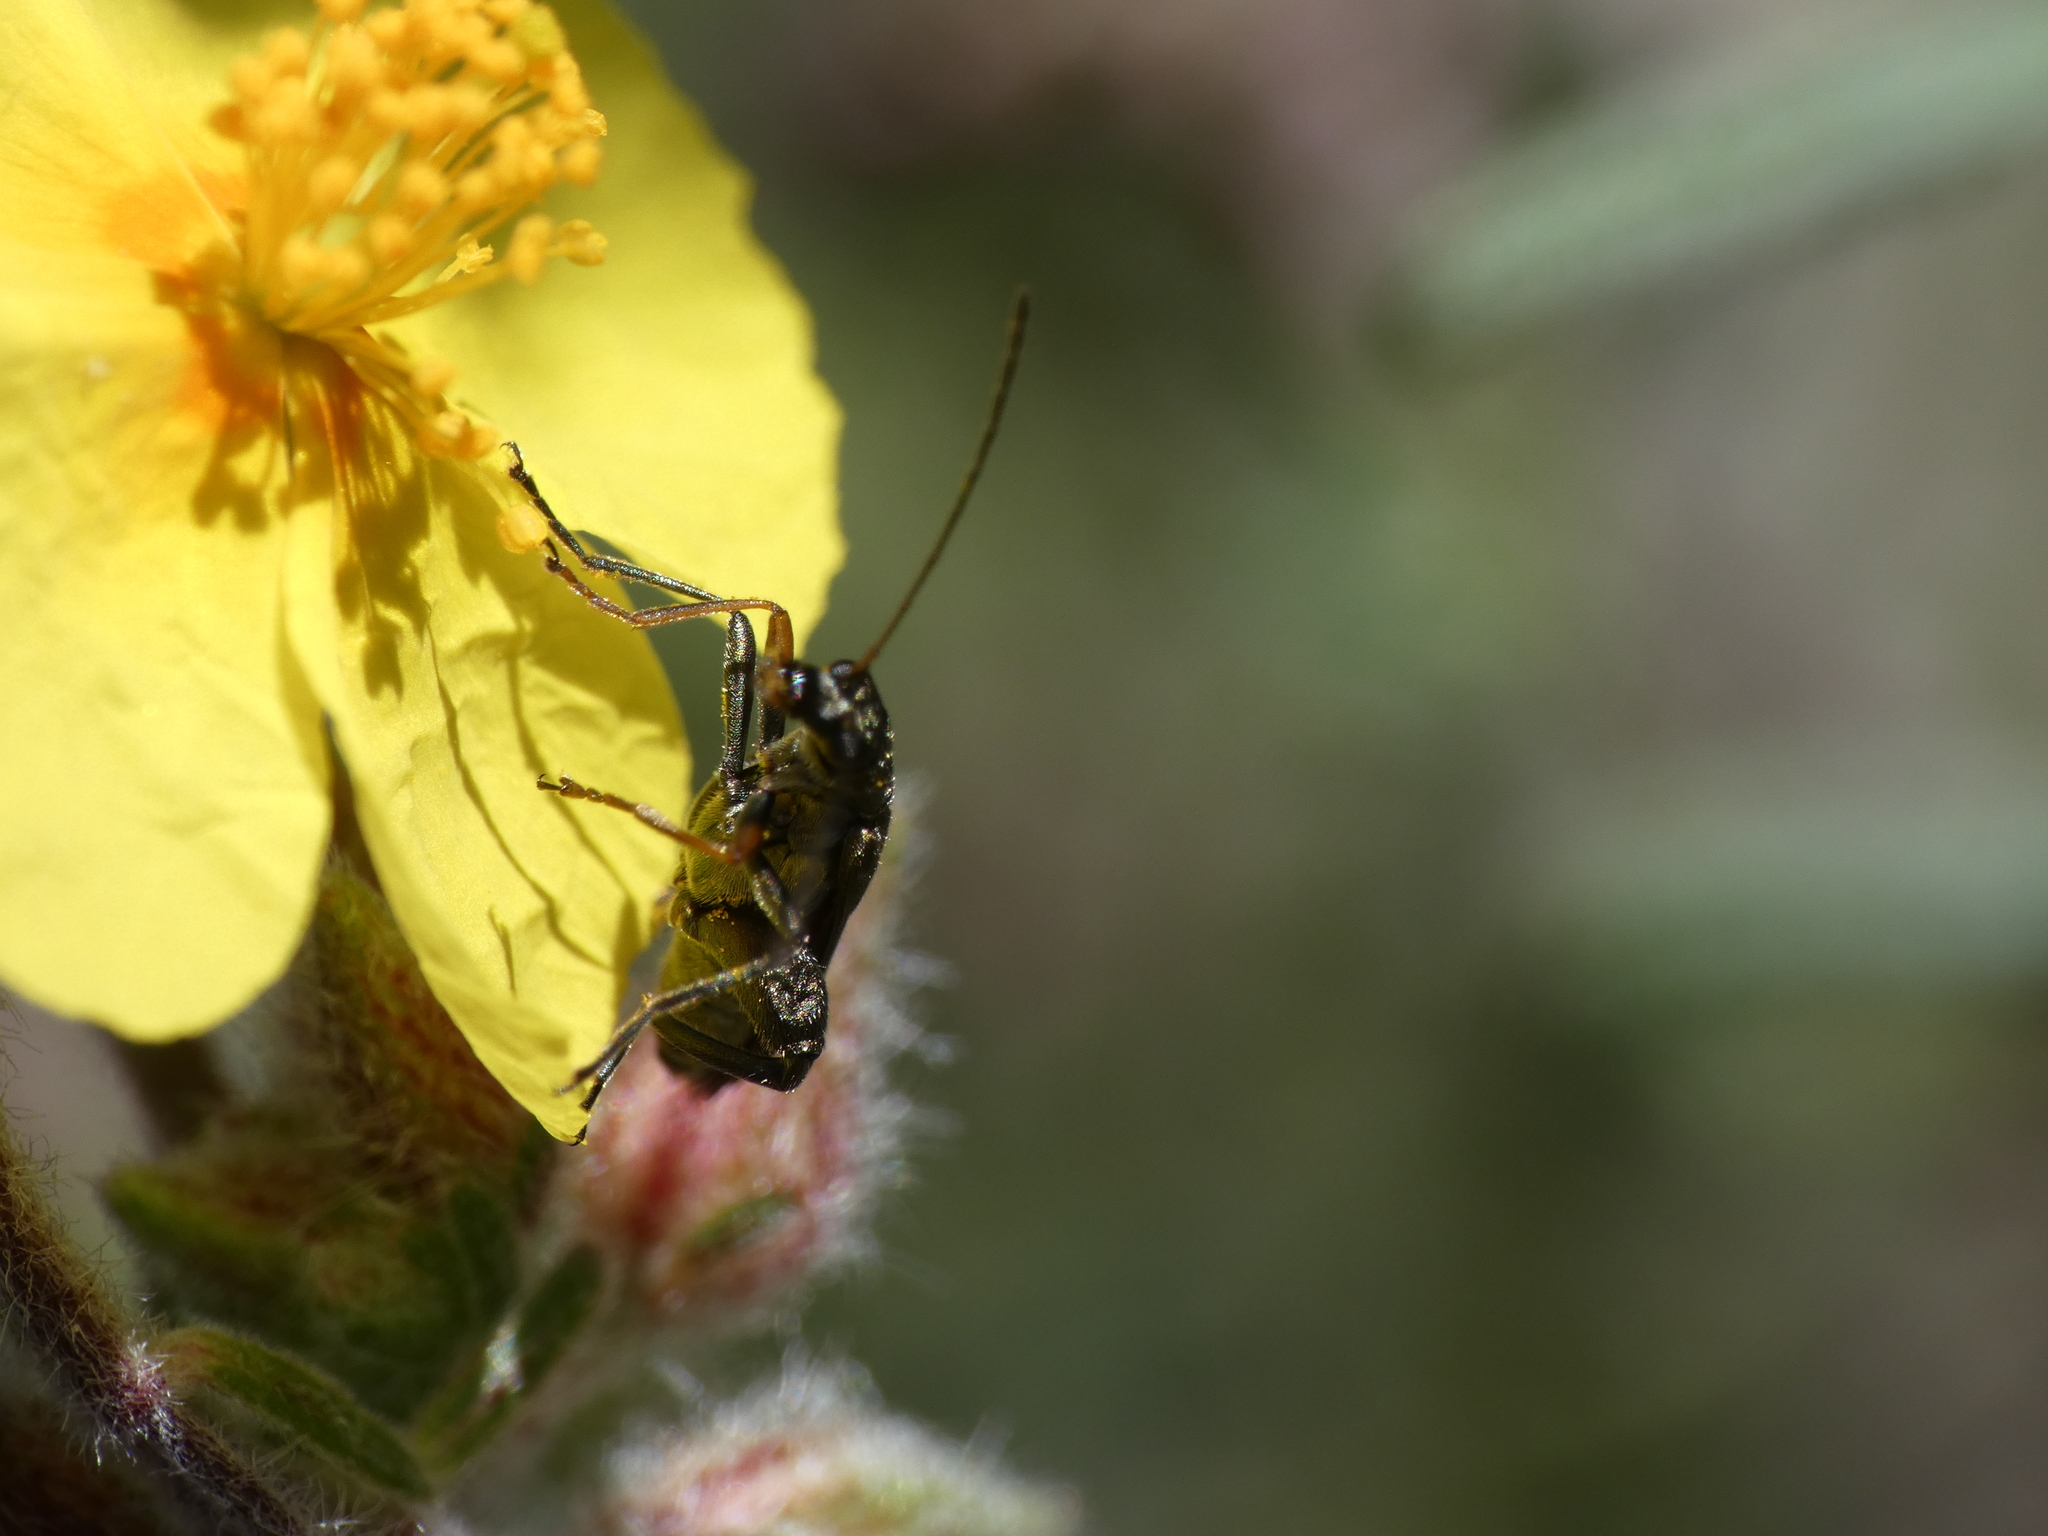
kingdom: Animalia
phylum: Arthropoda
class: Insecta
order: Coleoptera
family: Oedemeridae
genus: Oedemera
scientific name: Oedemera flavipes
